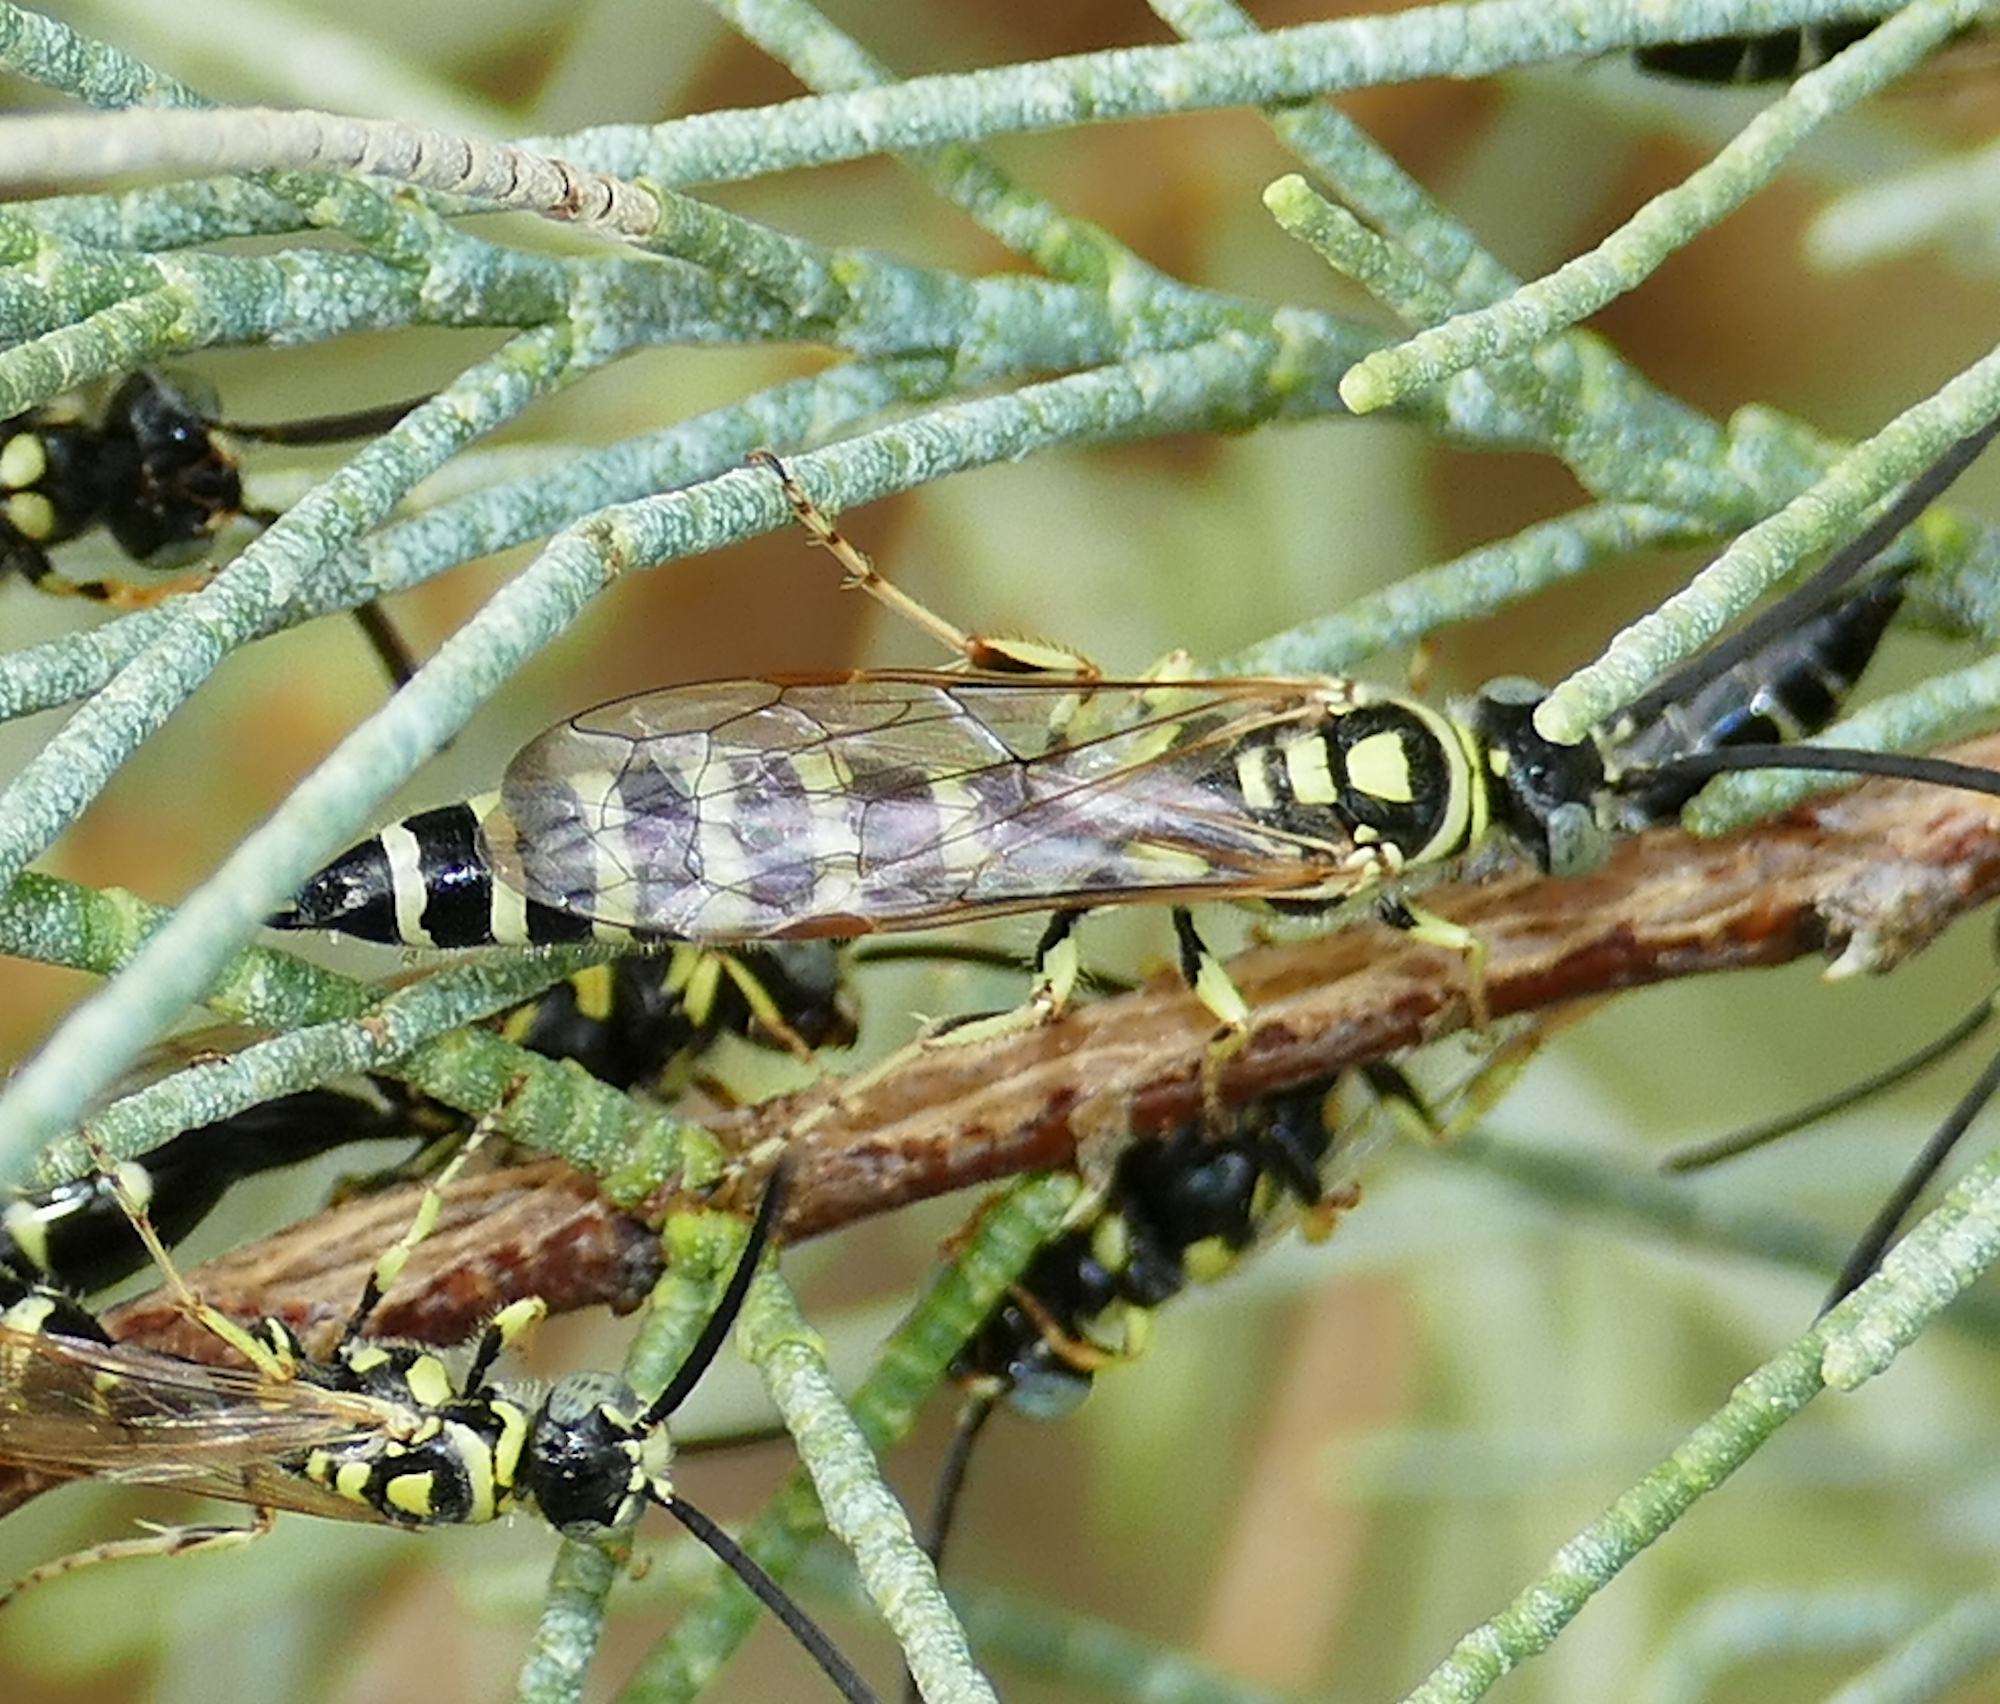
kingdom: Animalia
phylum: Arthropoda
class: Insecta
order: Hymenoptera
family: Tiphiidae
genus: Myzinum
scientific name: Myzinum frontalis
